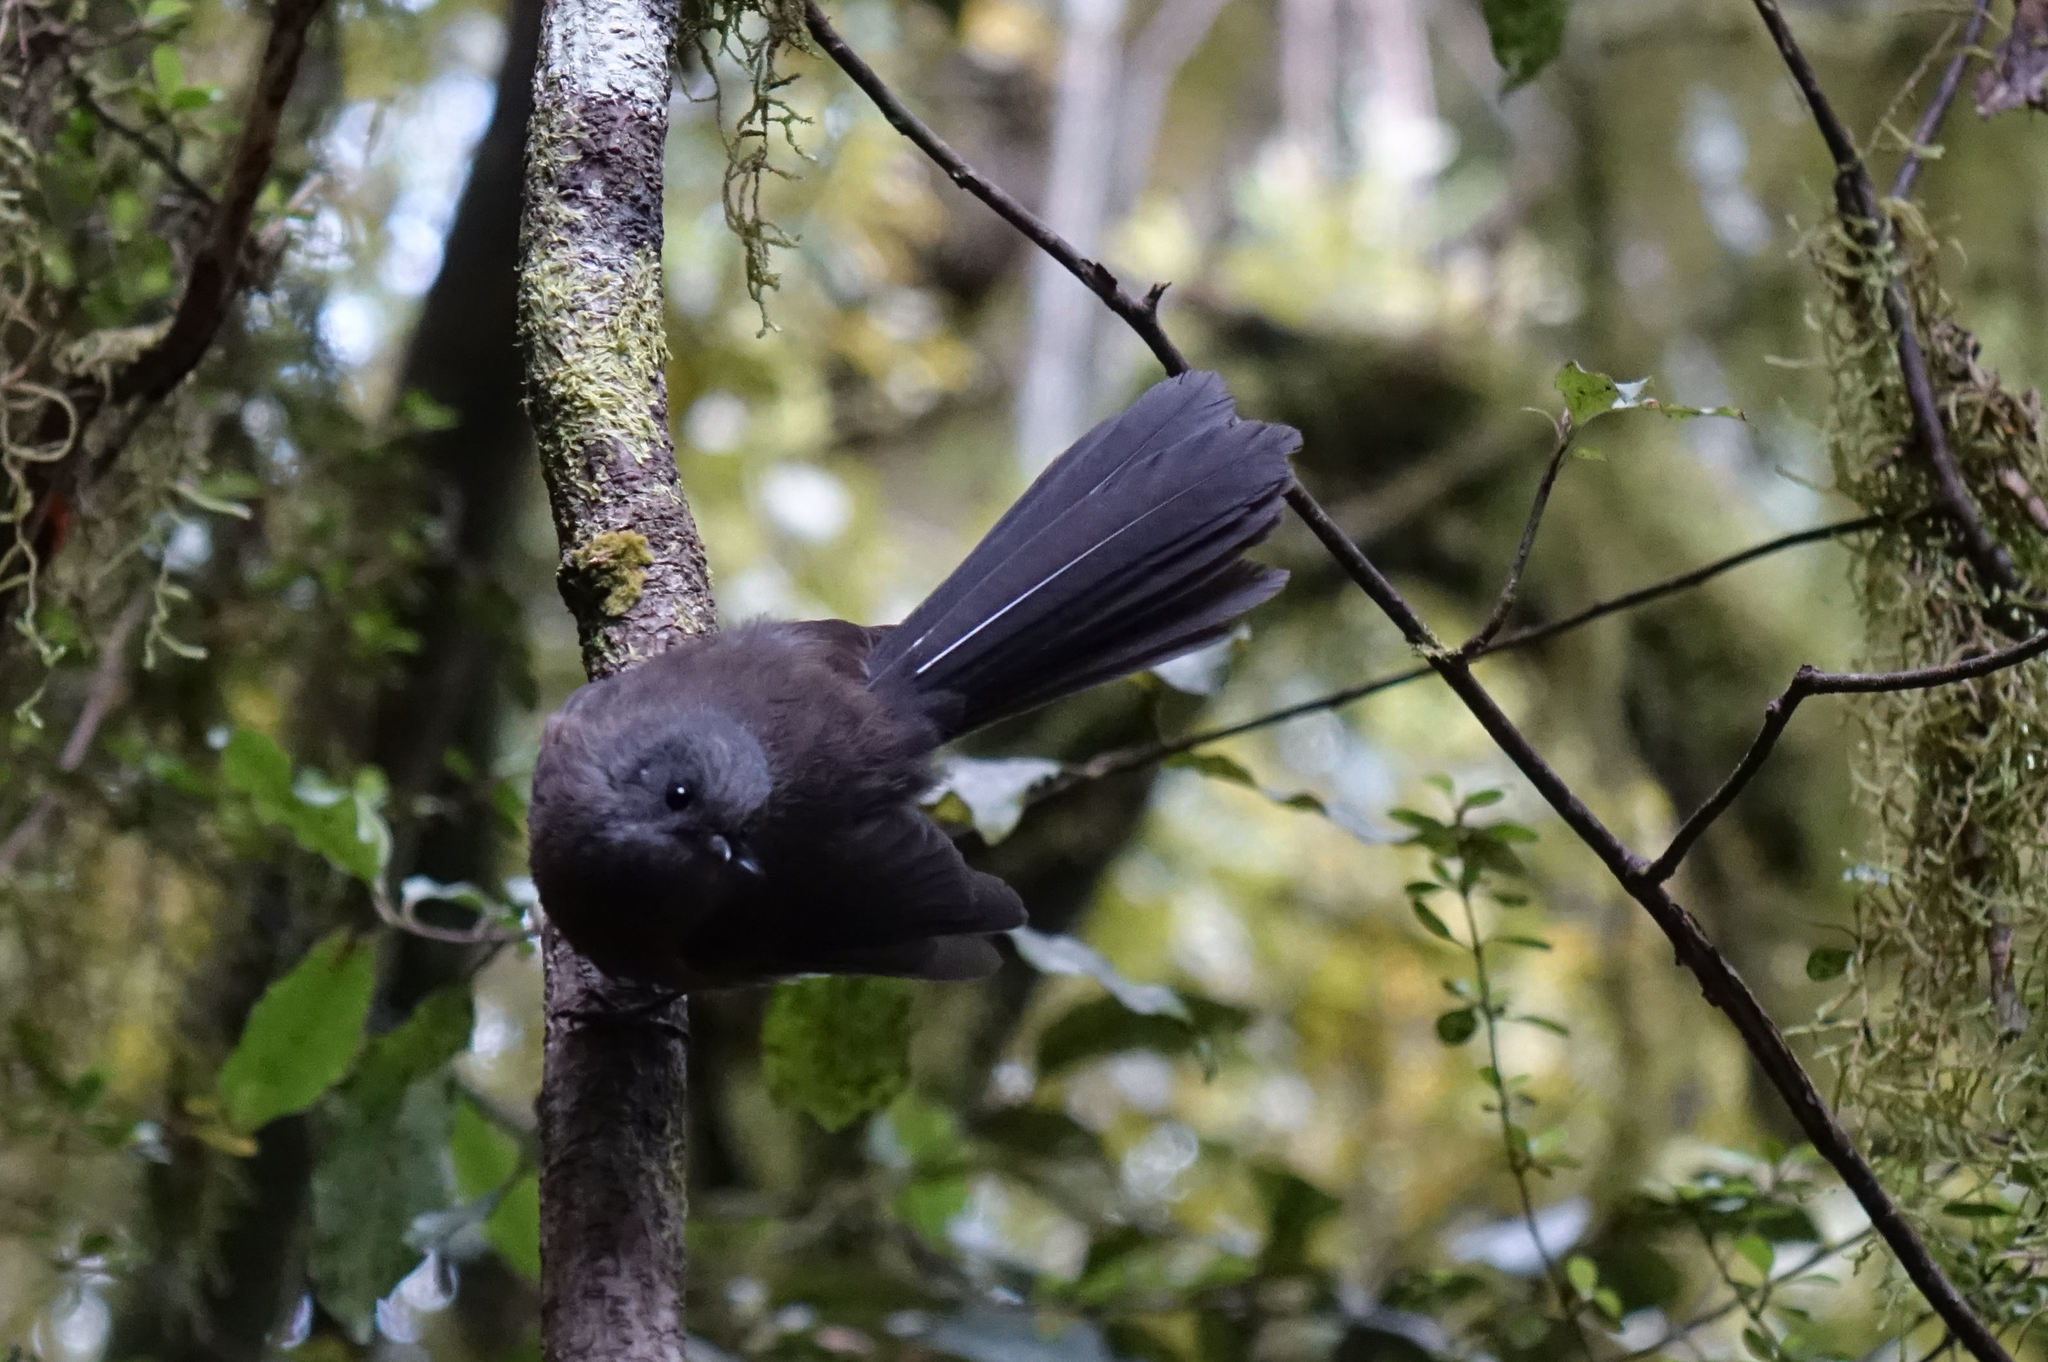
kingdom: Animalia
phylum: Chordata
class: Aves
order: Passeriformes
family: Rhipiduridae
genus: Rhipidura
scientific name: Rhipidura fuliginosa
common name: New zealand fantail
